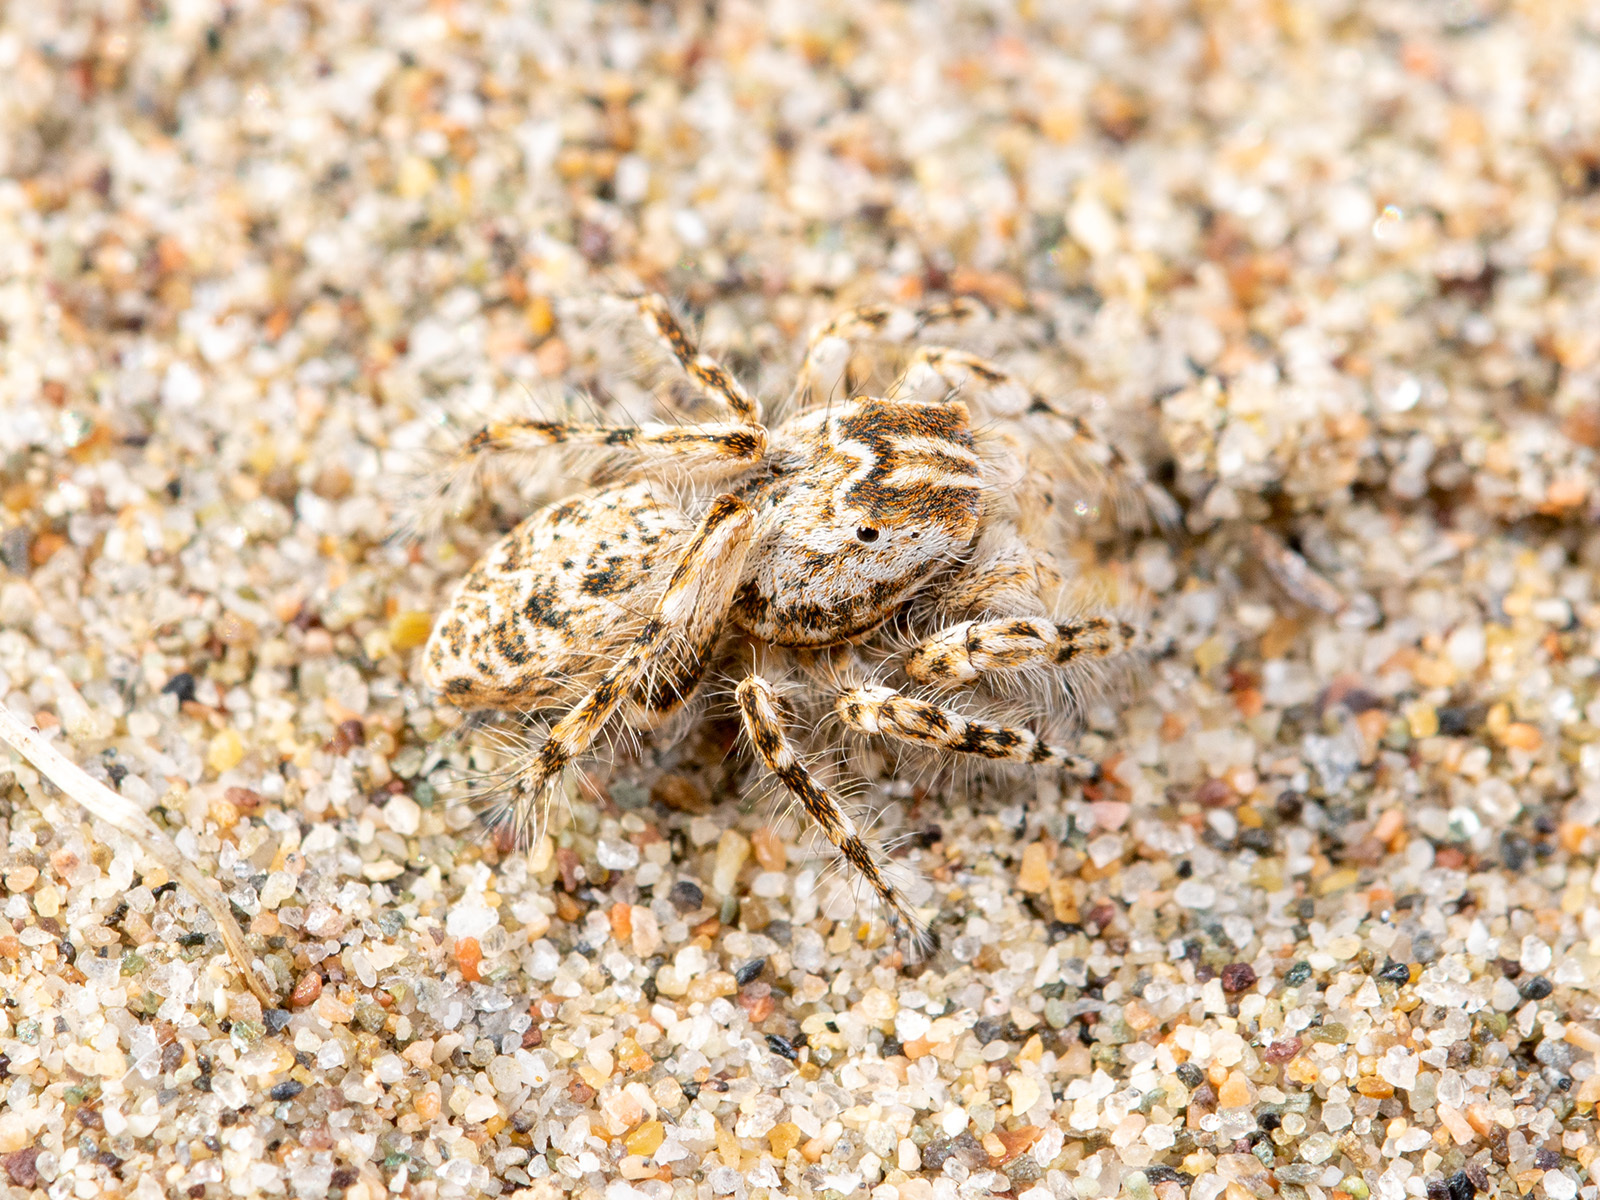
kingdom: Animalia
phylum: Arthropoda
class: Arachnida
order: Araneae
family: Salticidae
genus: Yllenus
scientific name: Yllenus turkestanicus
